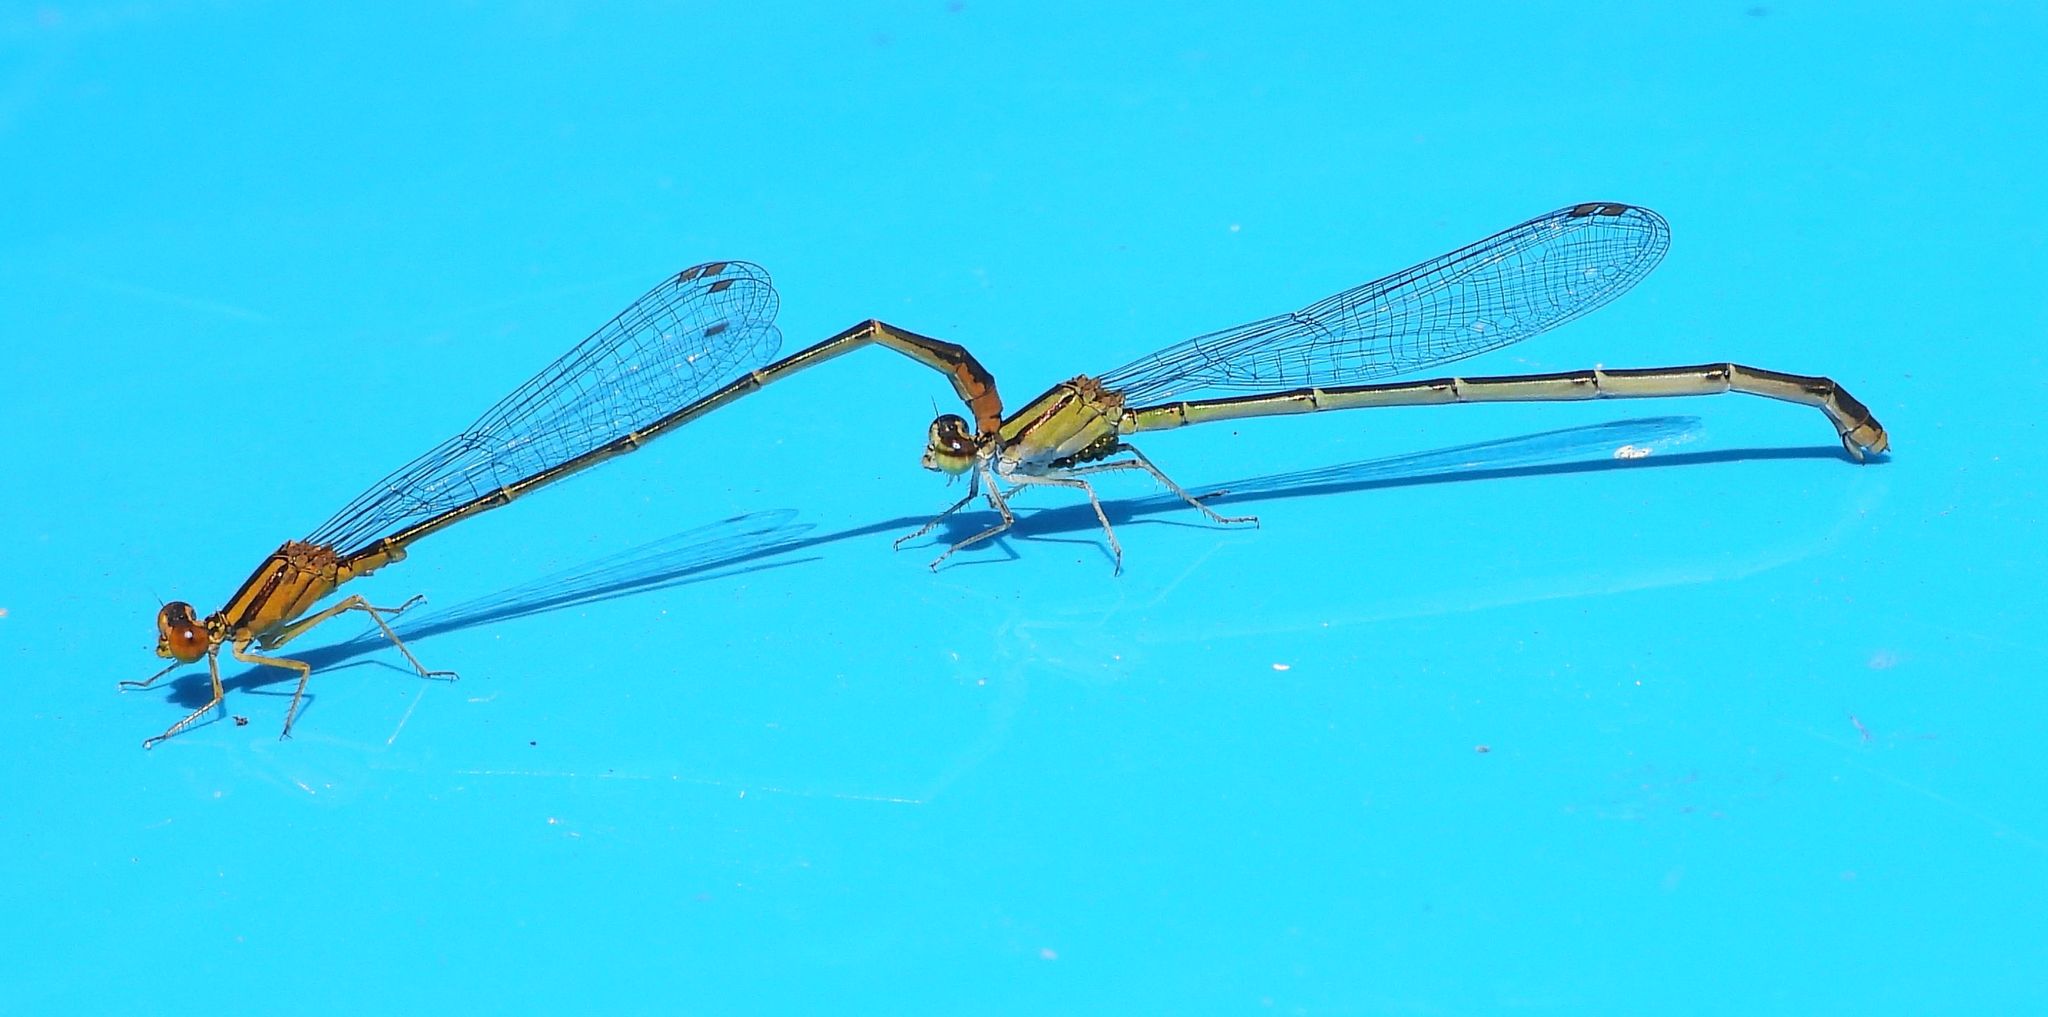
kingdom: Animalia
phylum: Arthropoda
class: Insecta
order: Odonata
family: Coenagrionidae
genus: Enallagma
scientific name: Enallagma signatum
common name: Orange bluet
